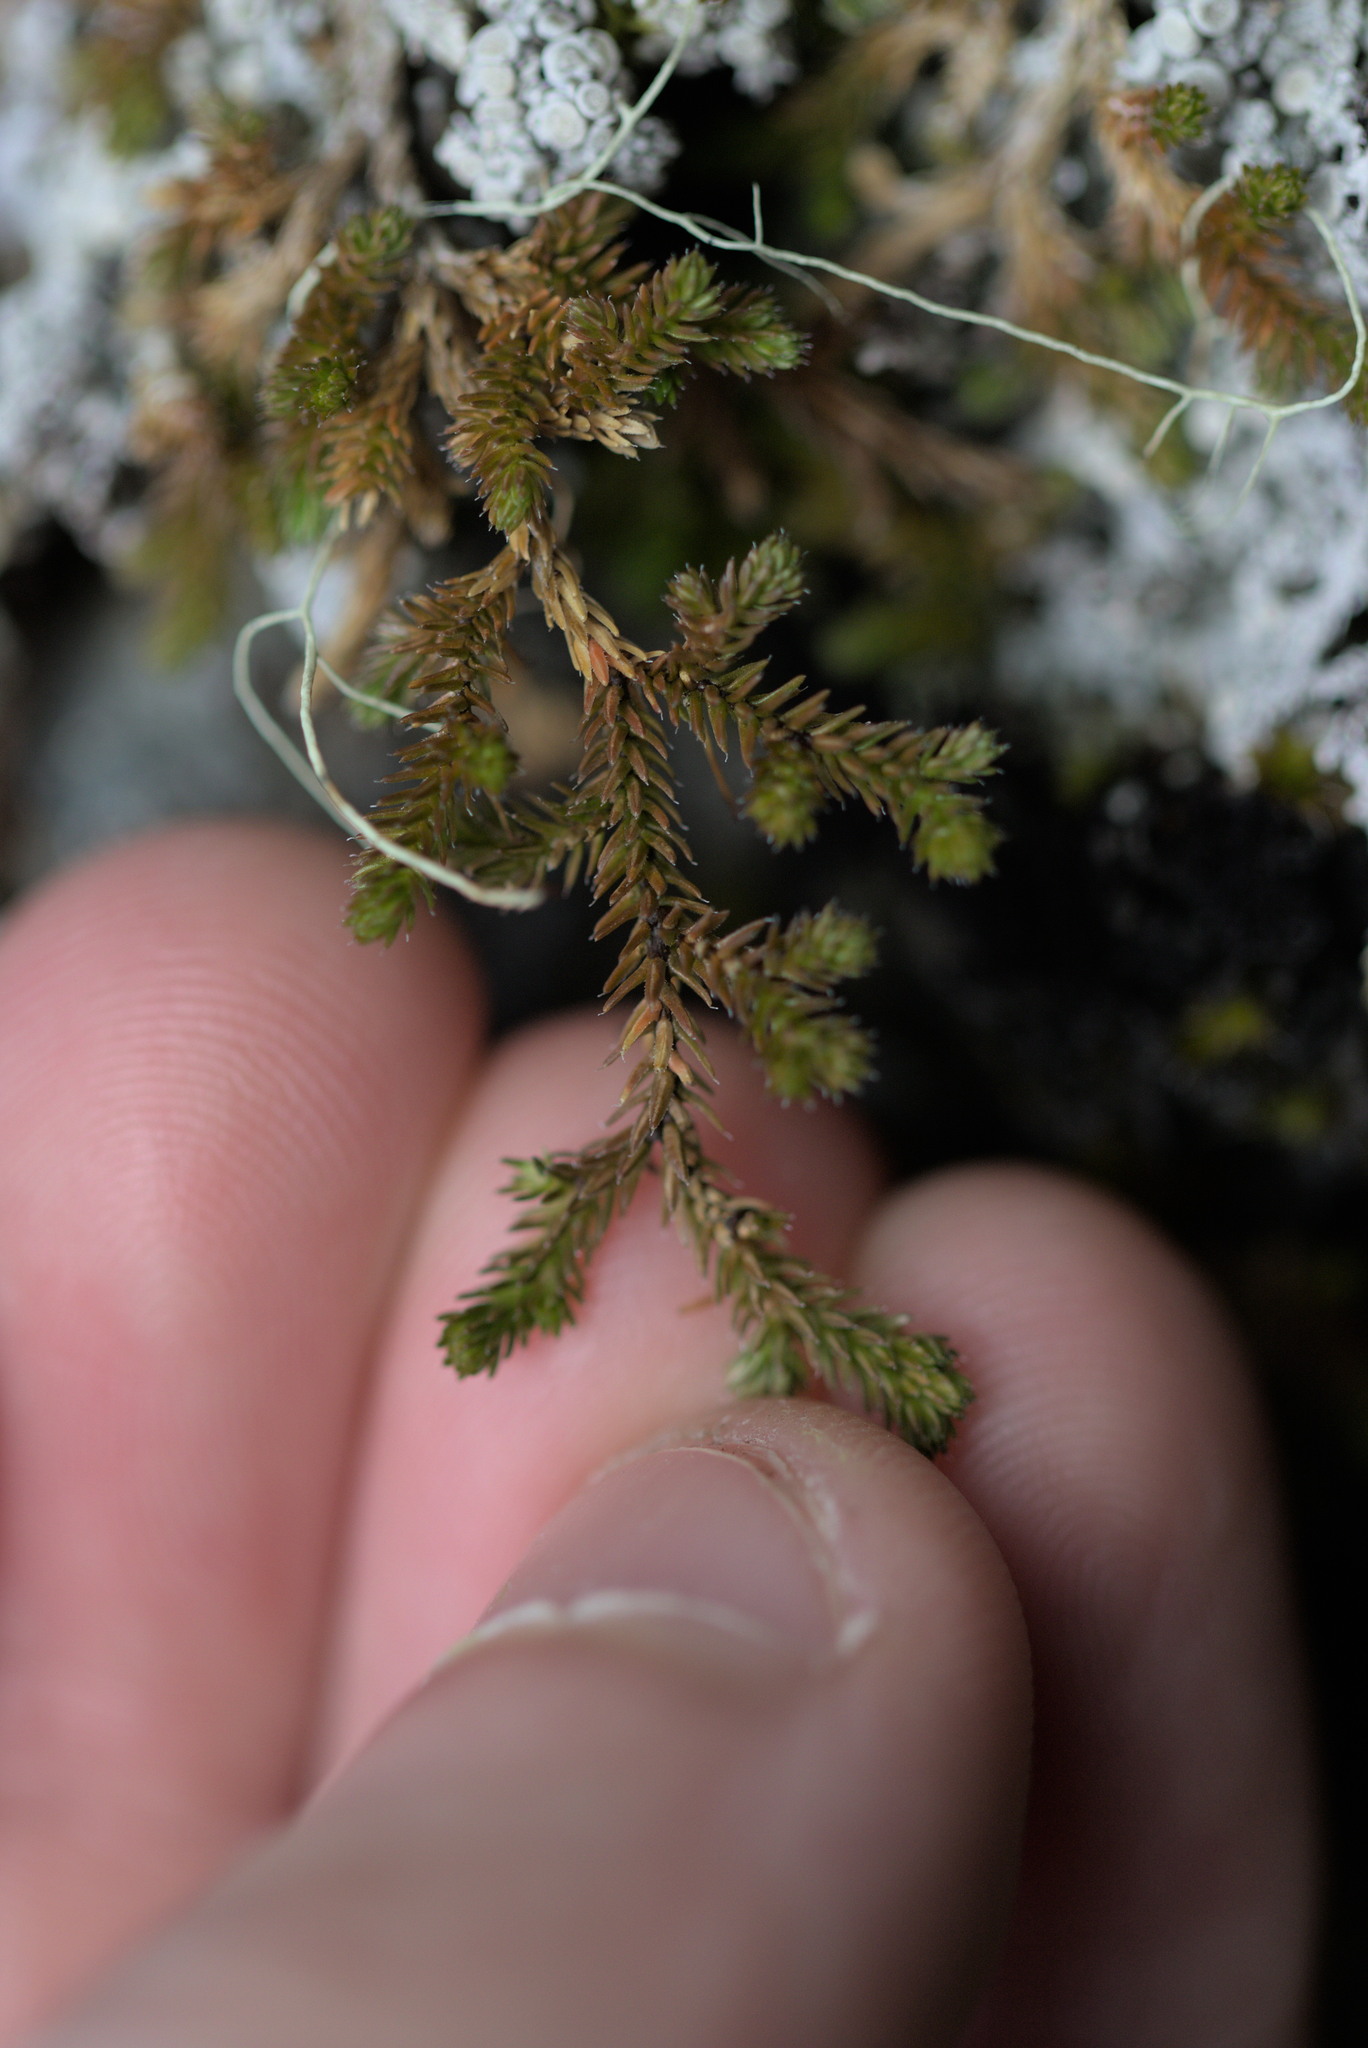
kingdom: Plantae
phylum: Tracheophyta
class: Lycopodiopsida
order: Selaginellales
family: Selaginellaceae
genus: Selaginella
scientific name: Selaginella wallacei
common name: Wallace's selaginella
